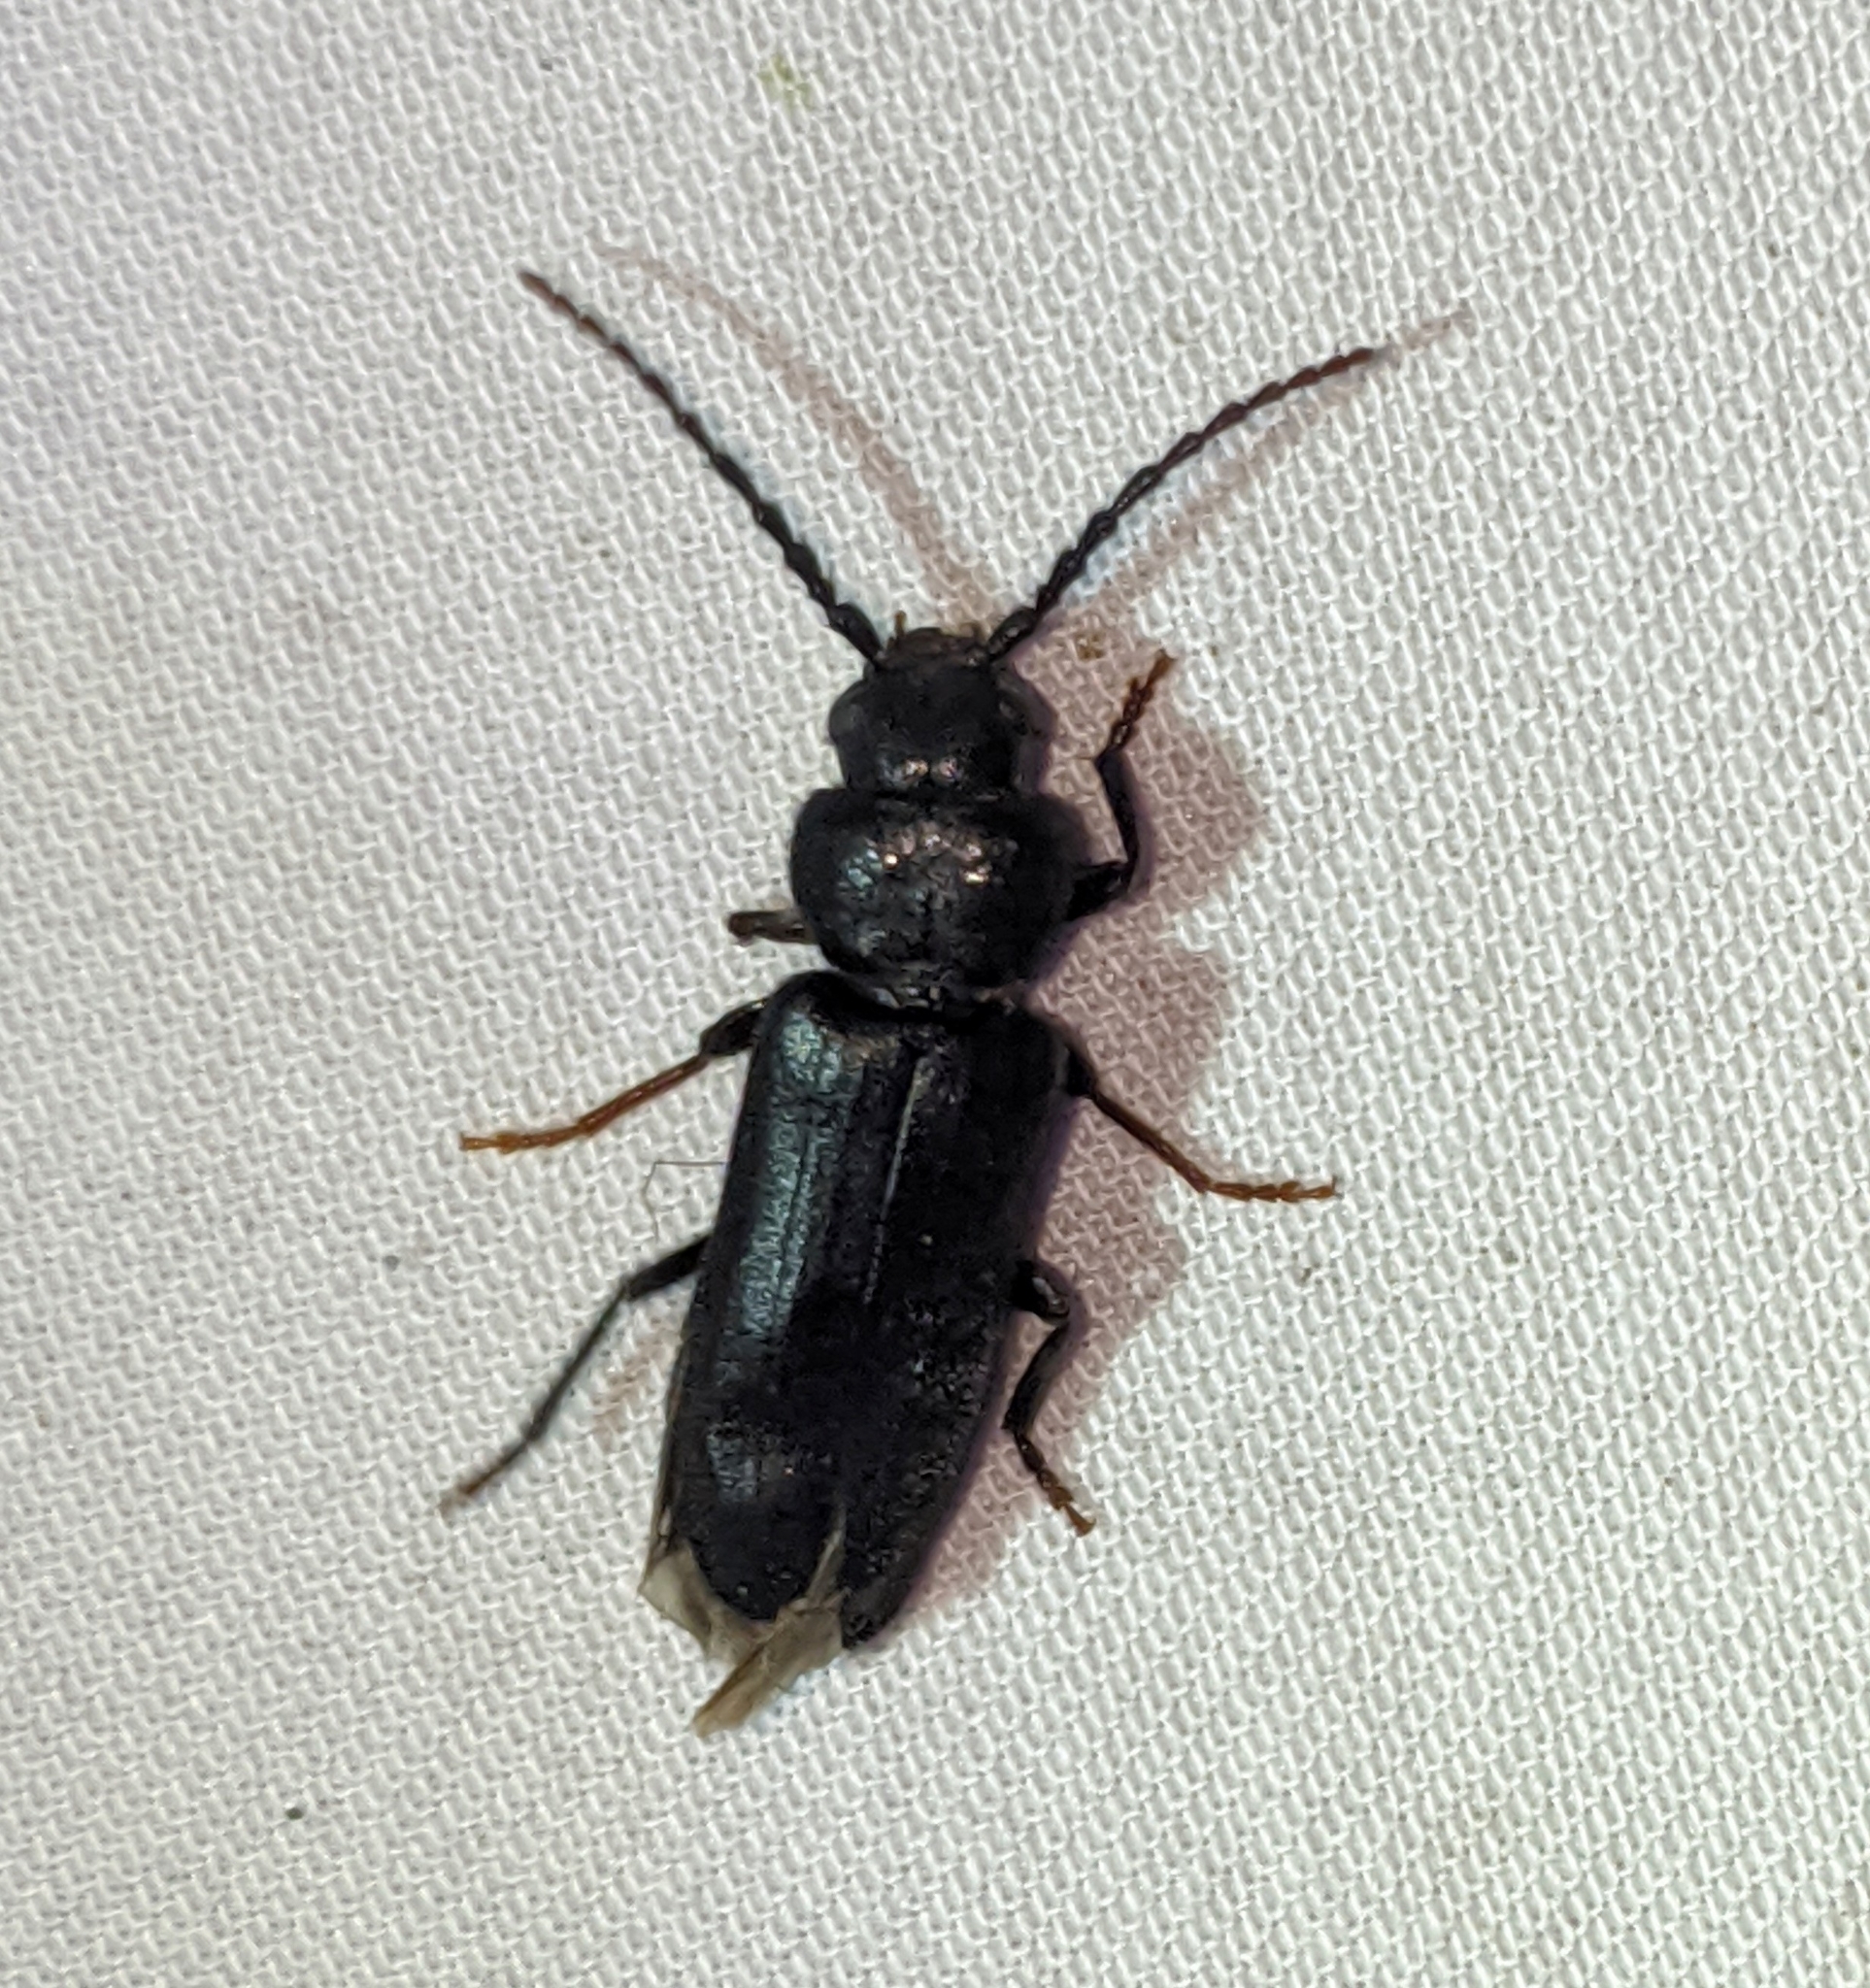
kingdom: Animalia
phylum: Arthropoda
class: Insecta
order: Coleoptera
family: Cerambycidae
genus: Asemum
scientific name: Asemum nitidum
